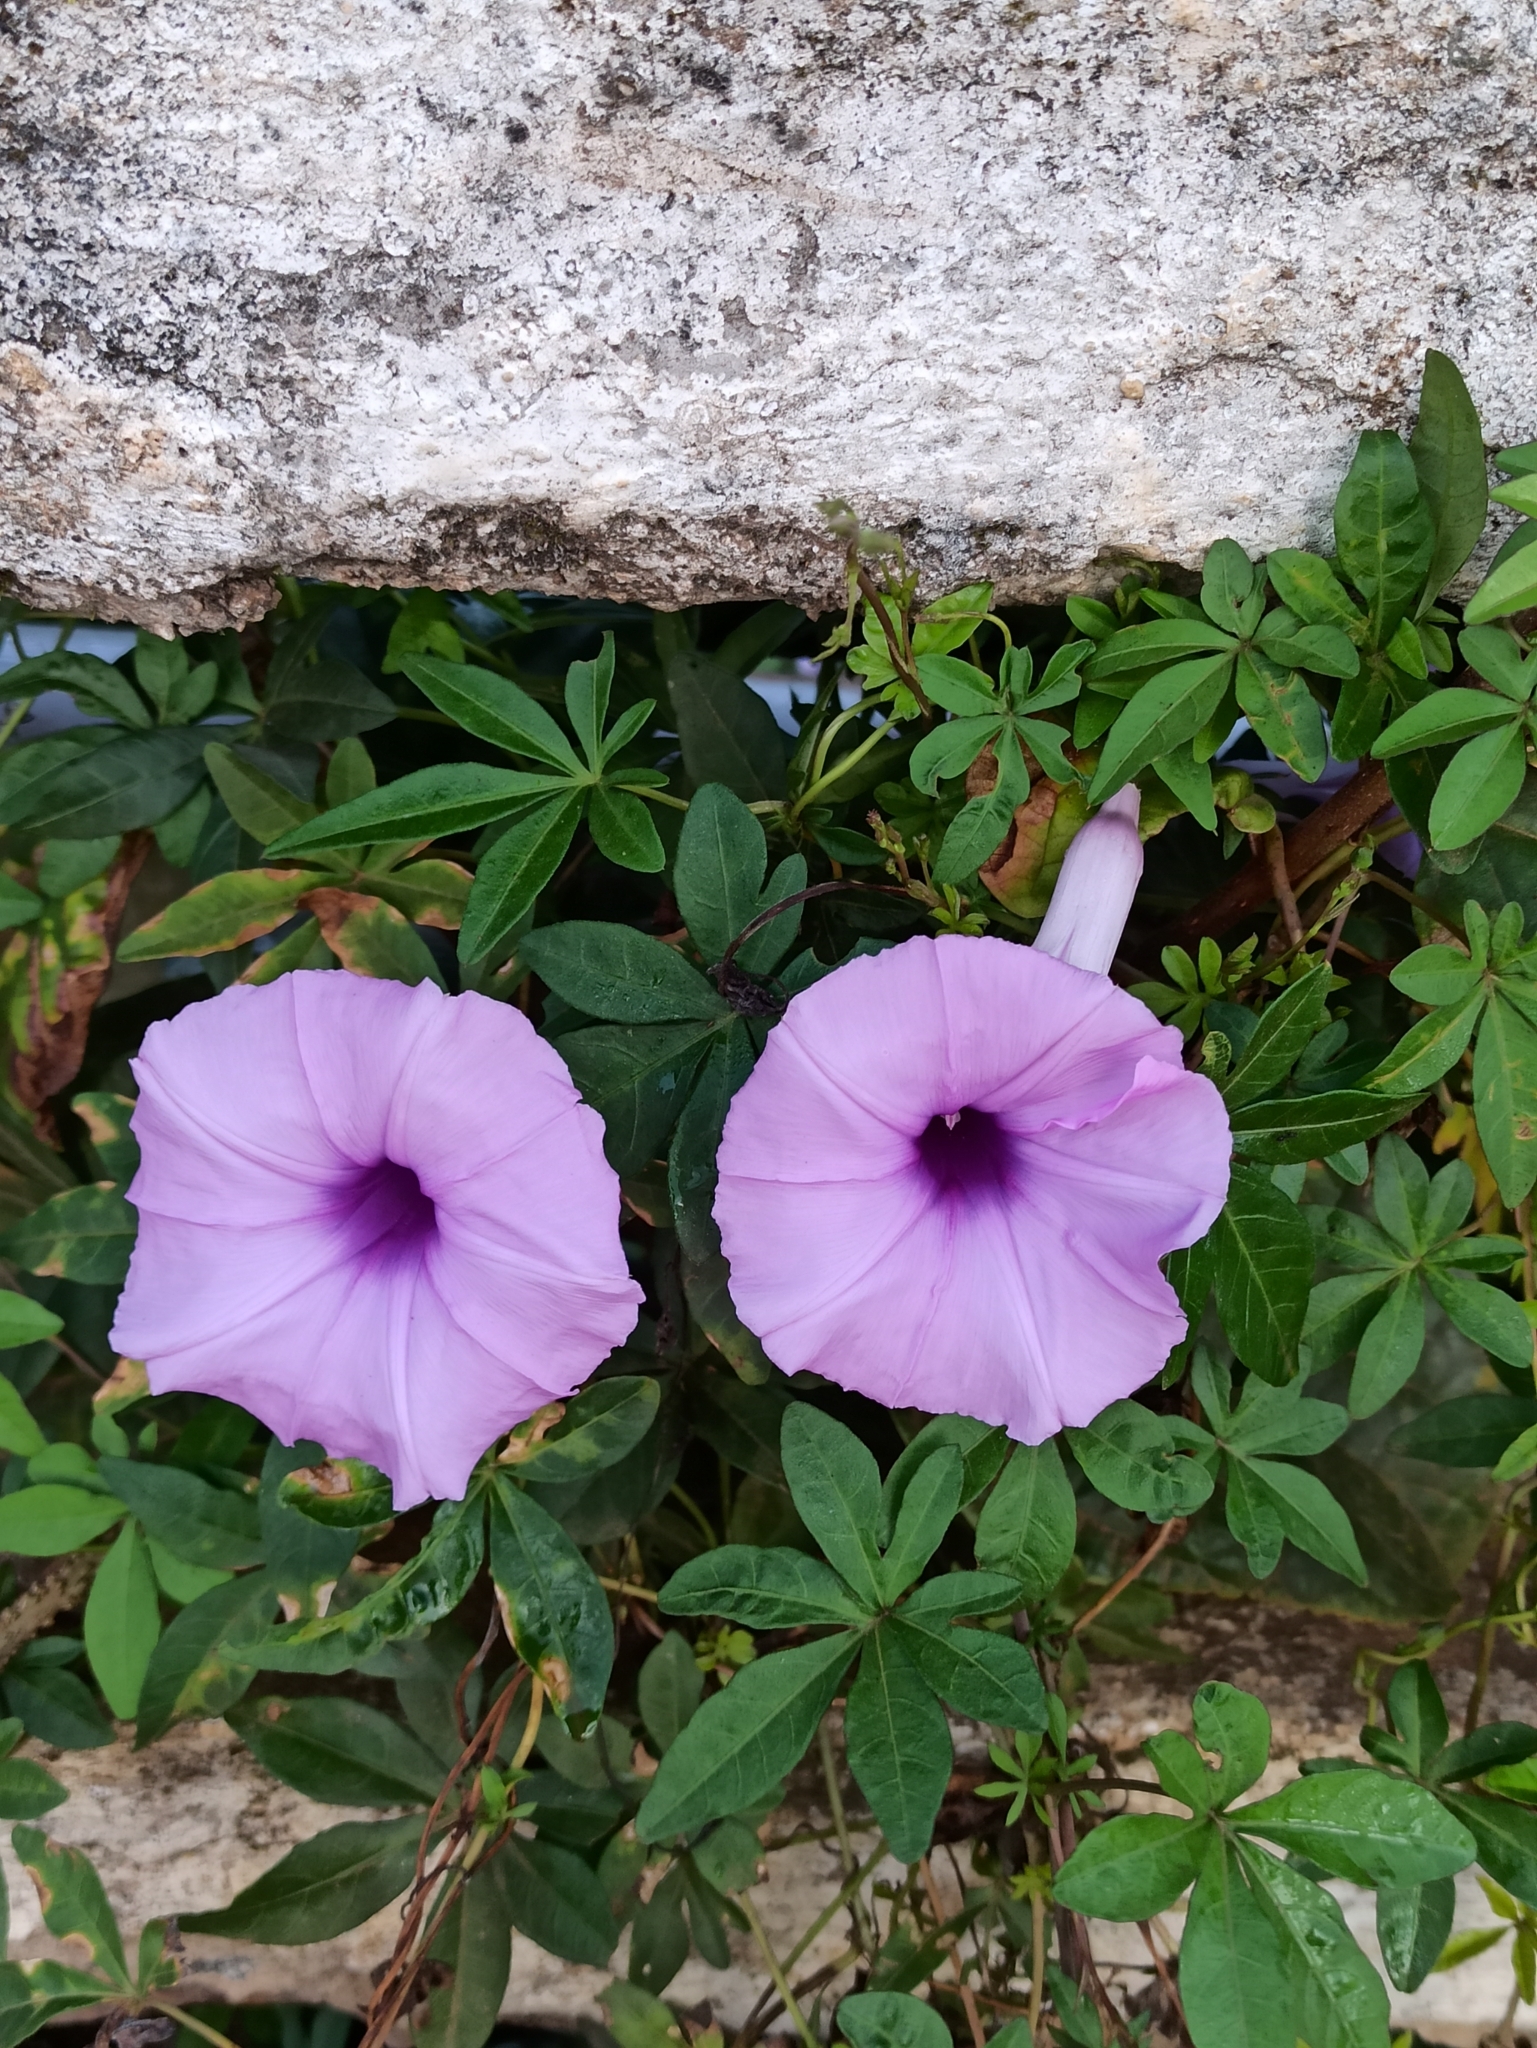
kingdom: Plantae
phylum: Tracheophyta
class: Magnoliopsida
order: Solanales
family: Convolvulaceae
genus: Ipomoea
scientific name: Ipomoea cairica
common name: Mile a minute vine
